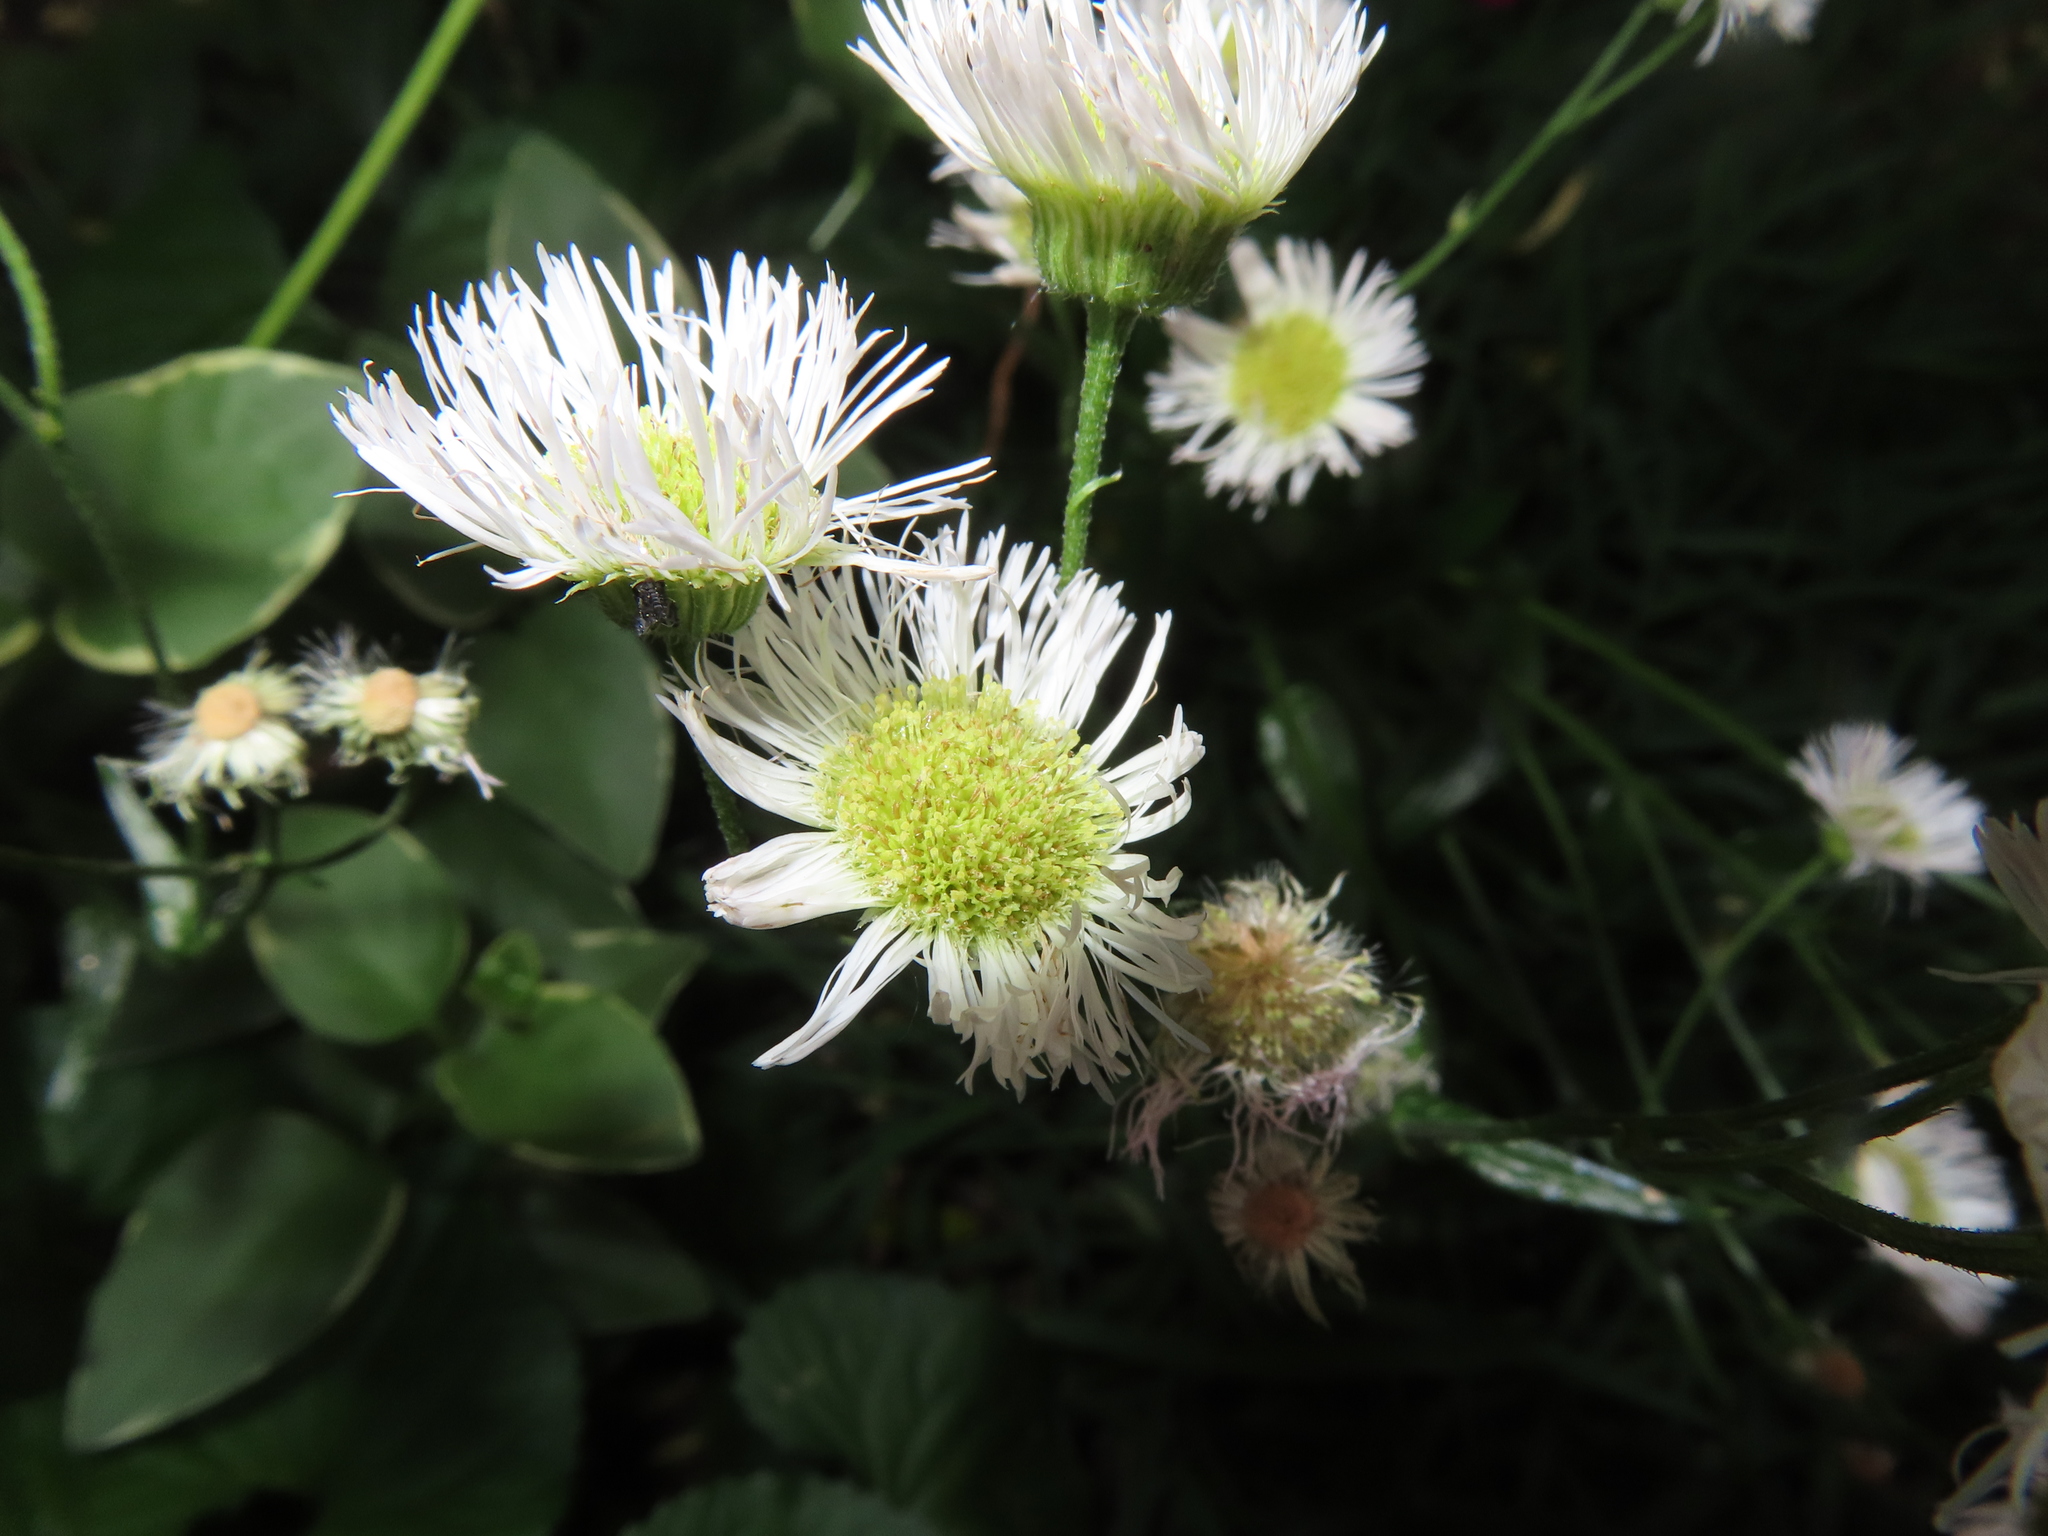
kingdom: Plantae
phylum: Tracheophyta
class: Magnoliopsida
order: Asterales
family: Asteraceae
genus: Erigeron
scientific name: Erigeron philadelphicus
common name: Robin's-plantain
